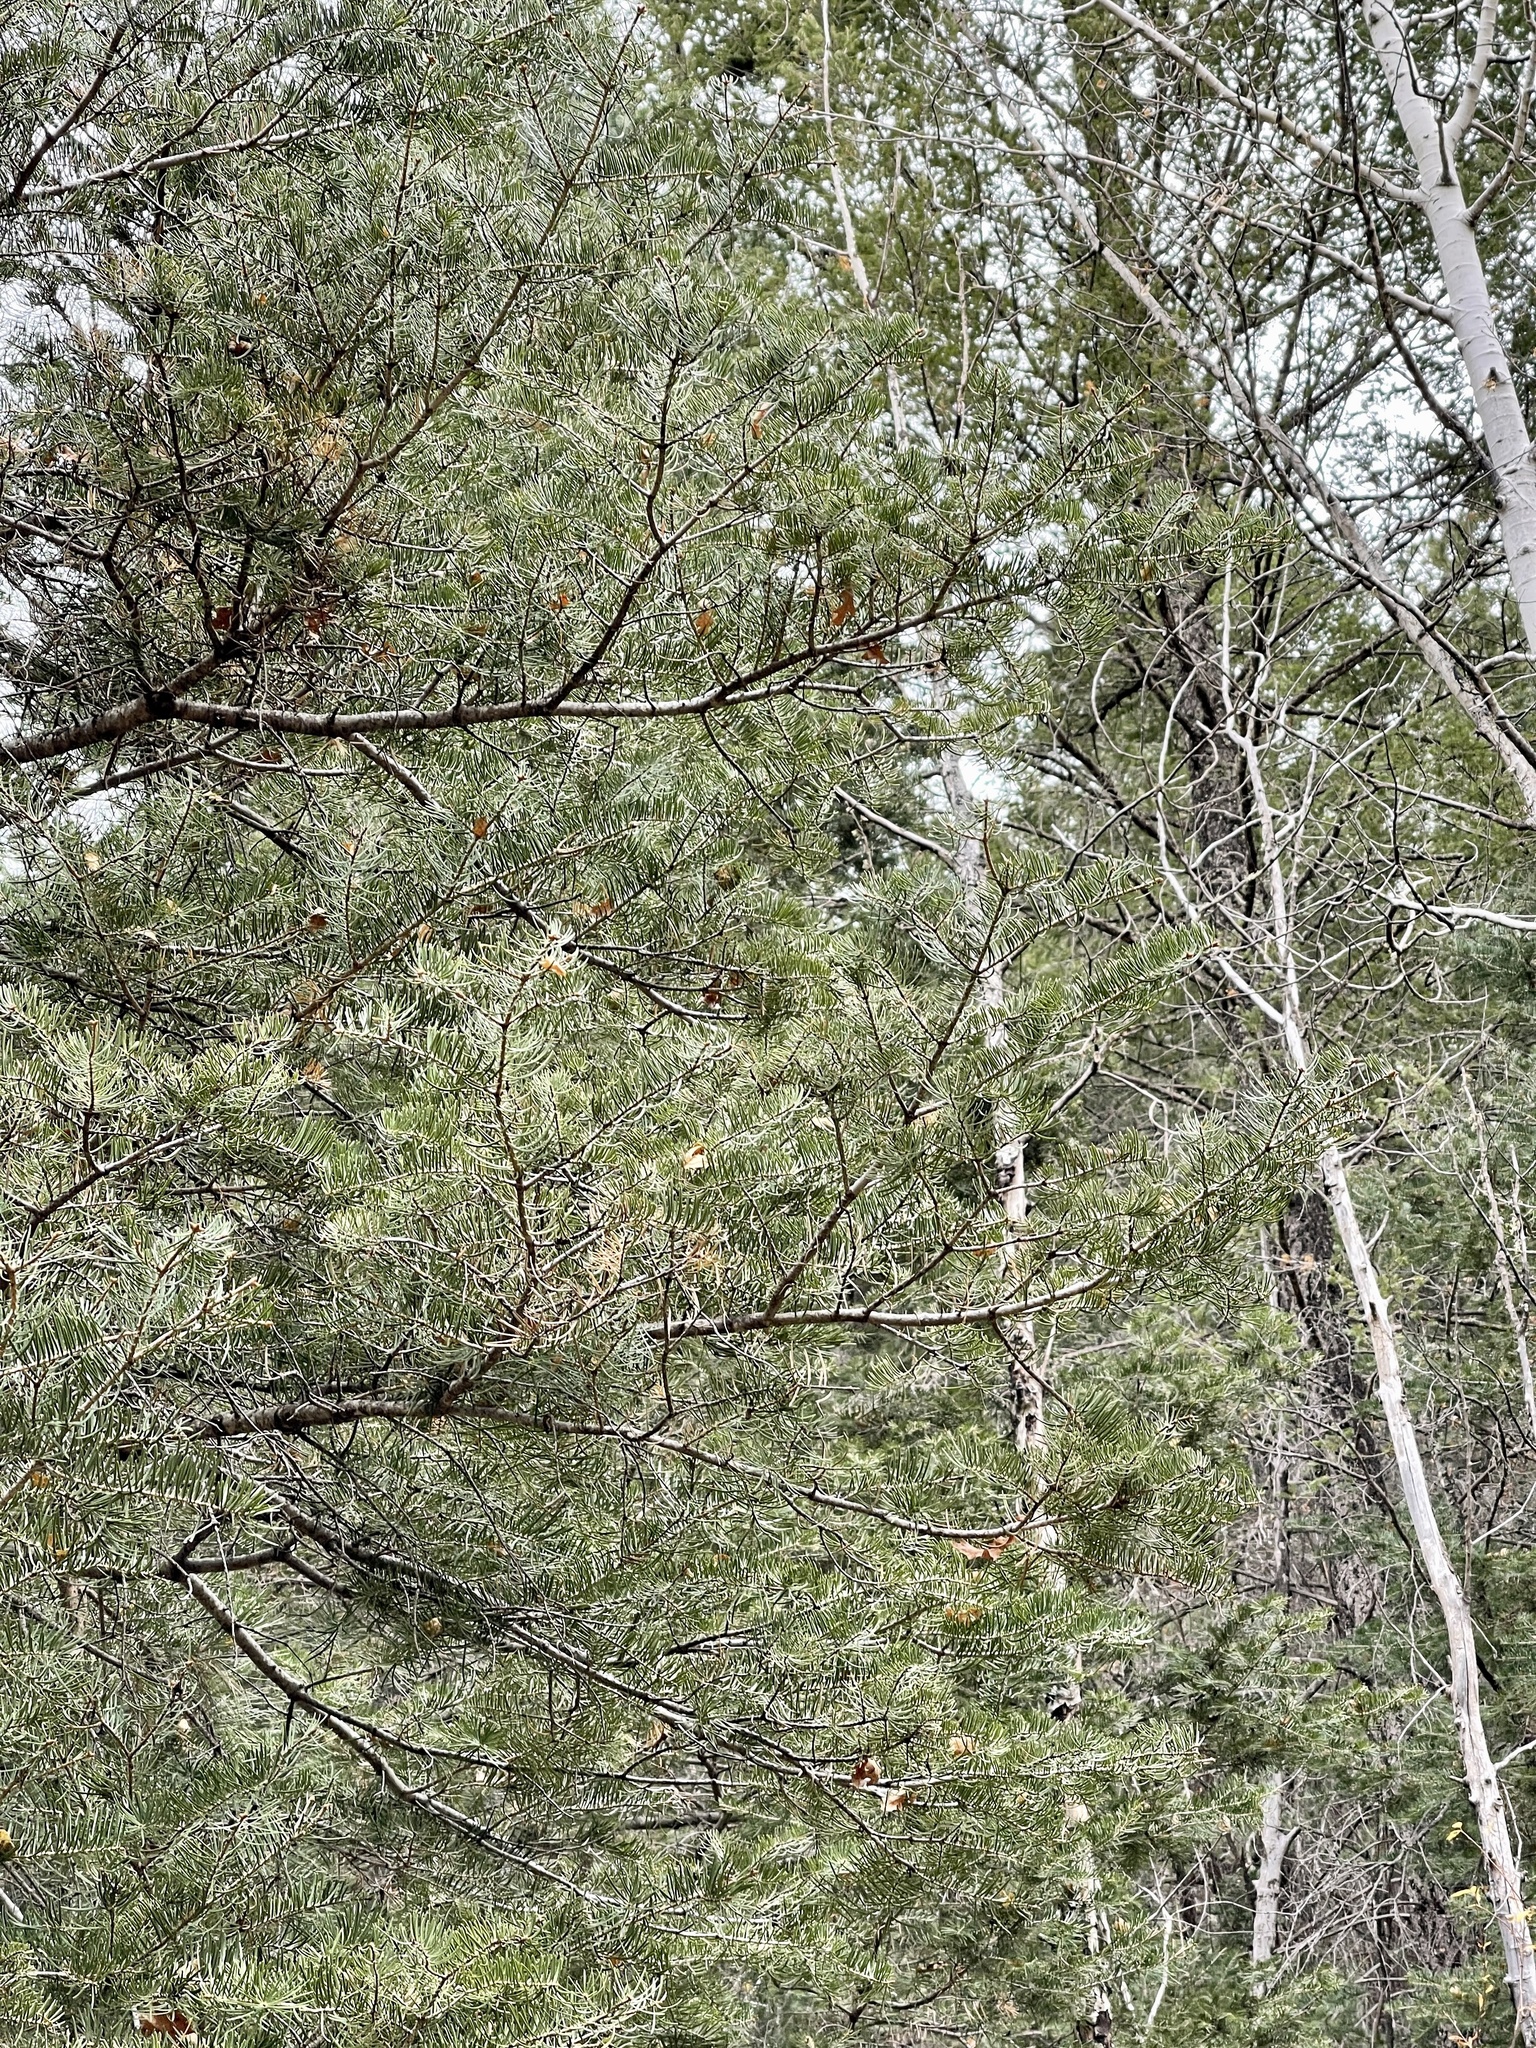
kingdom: Plantae
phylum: Tracheophyta
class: Pinopsida
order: Pinales
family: Pinaceae
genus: Abies
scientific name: Abies concolor
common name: Colorado fir
